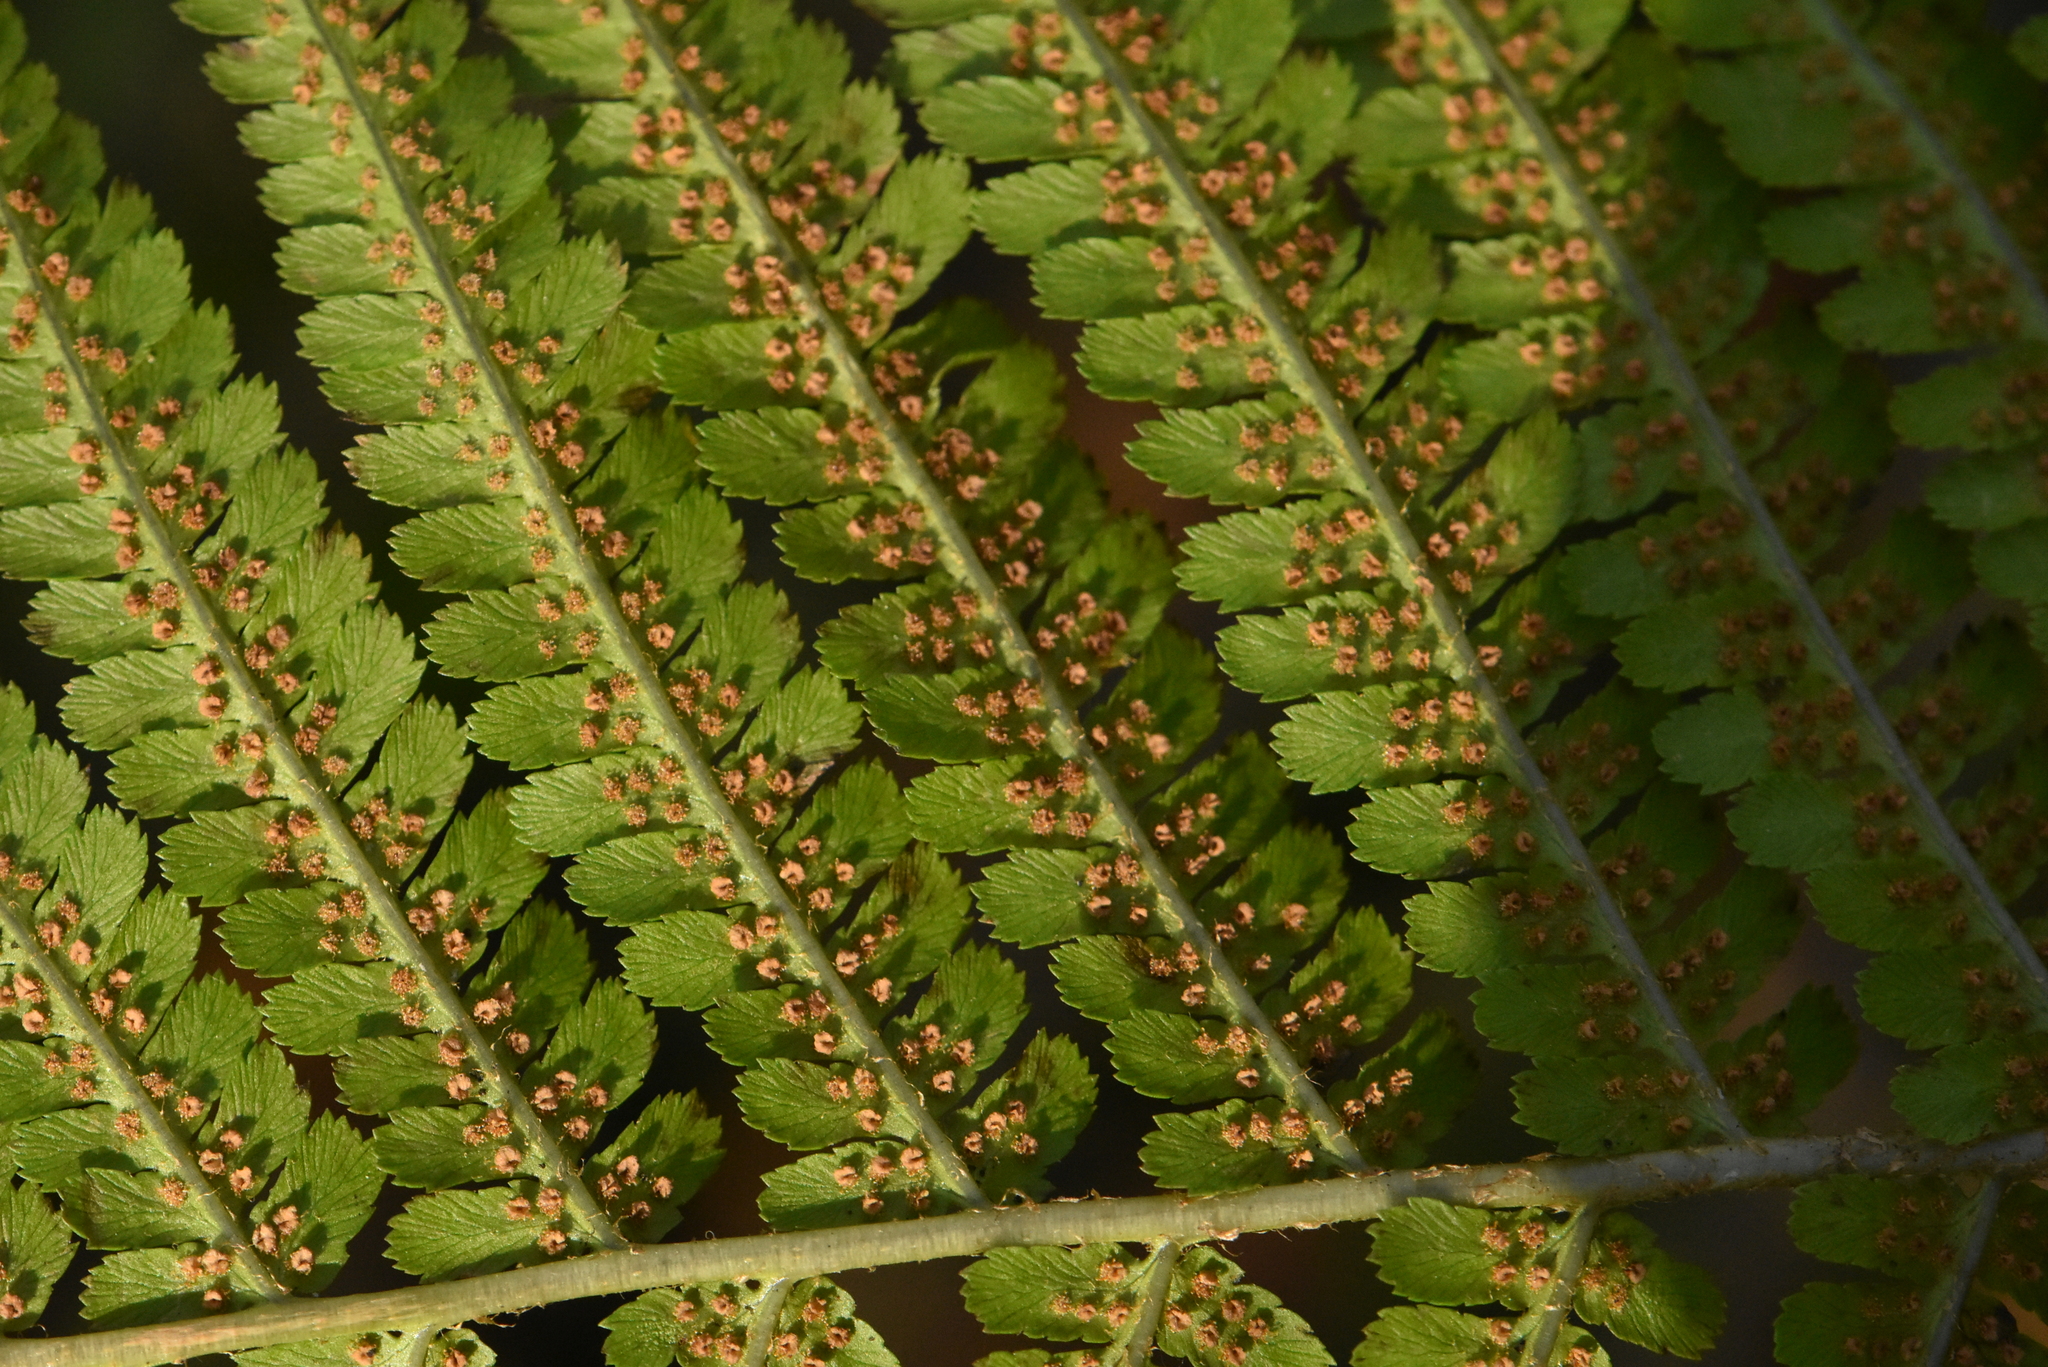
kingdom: Plantae
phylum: Tracheophyta
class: Polypodiopsida
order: Polypodiales
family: Dryopteridaceae
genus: Dryopteris
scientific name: Dryopteris filix-mas
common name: Male fern
